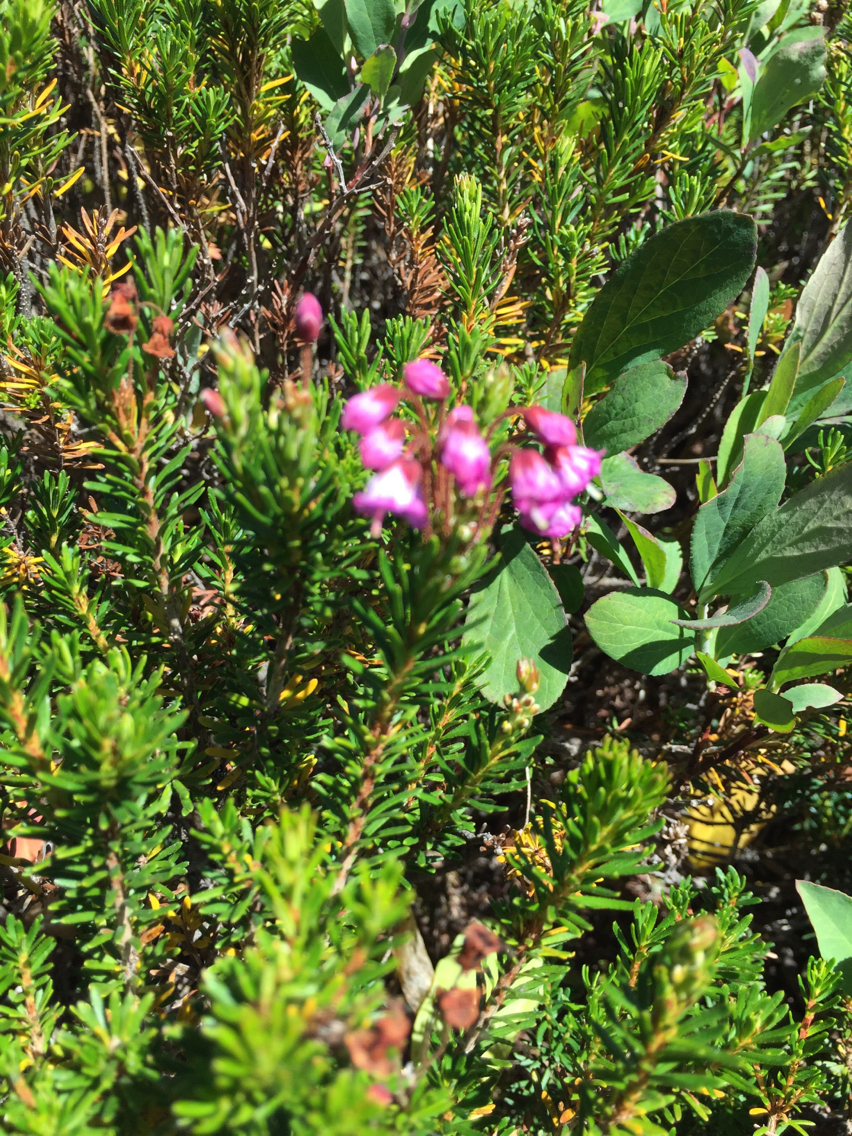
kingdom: Plantae
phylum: Tracheophyta
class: Magnoliopsida
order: Ericales
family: Ericaceae
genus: Phyllodoce
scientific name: Phyllodoce empetriformis
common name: Pink mountain heather
